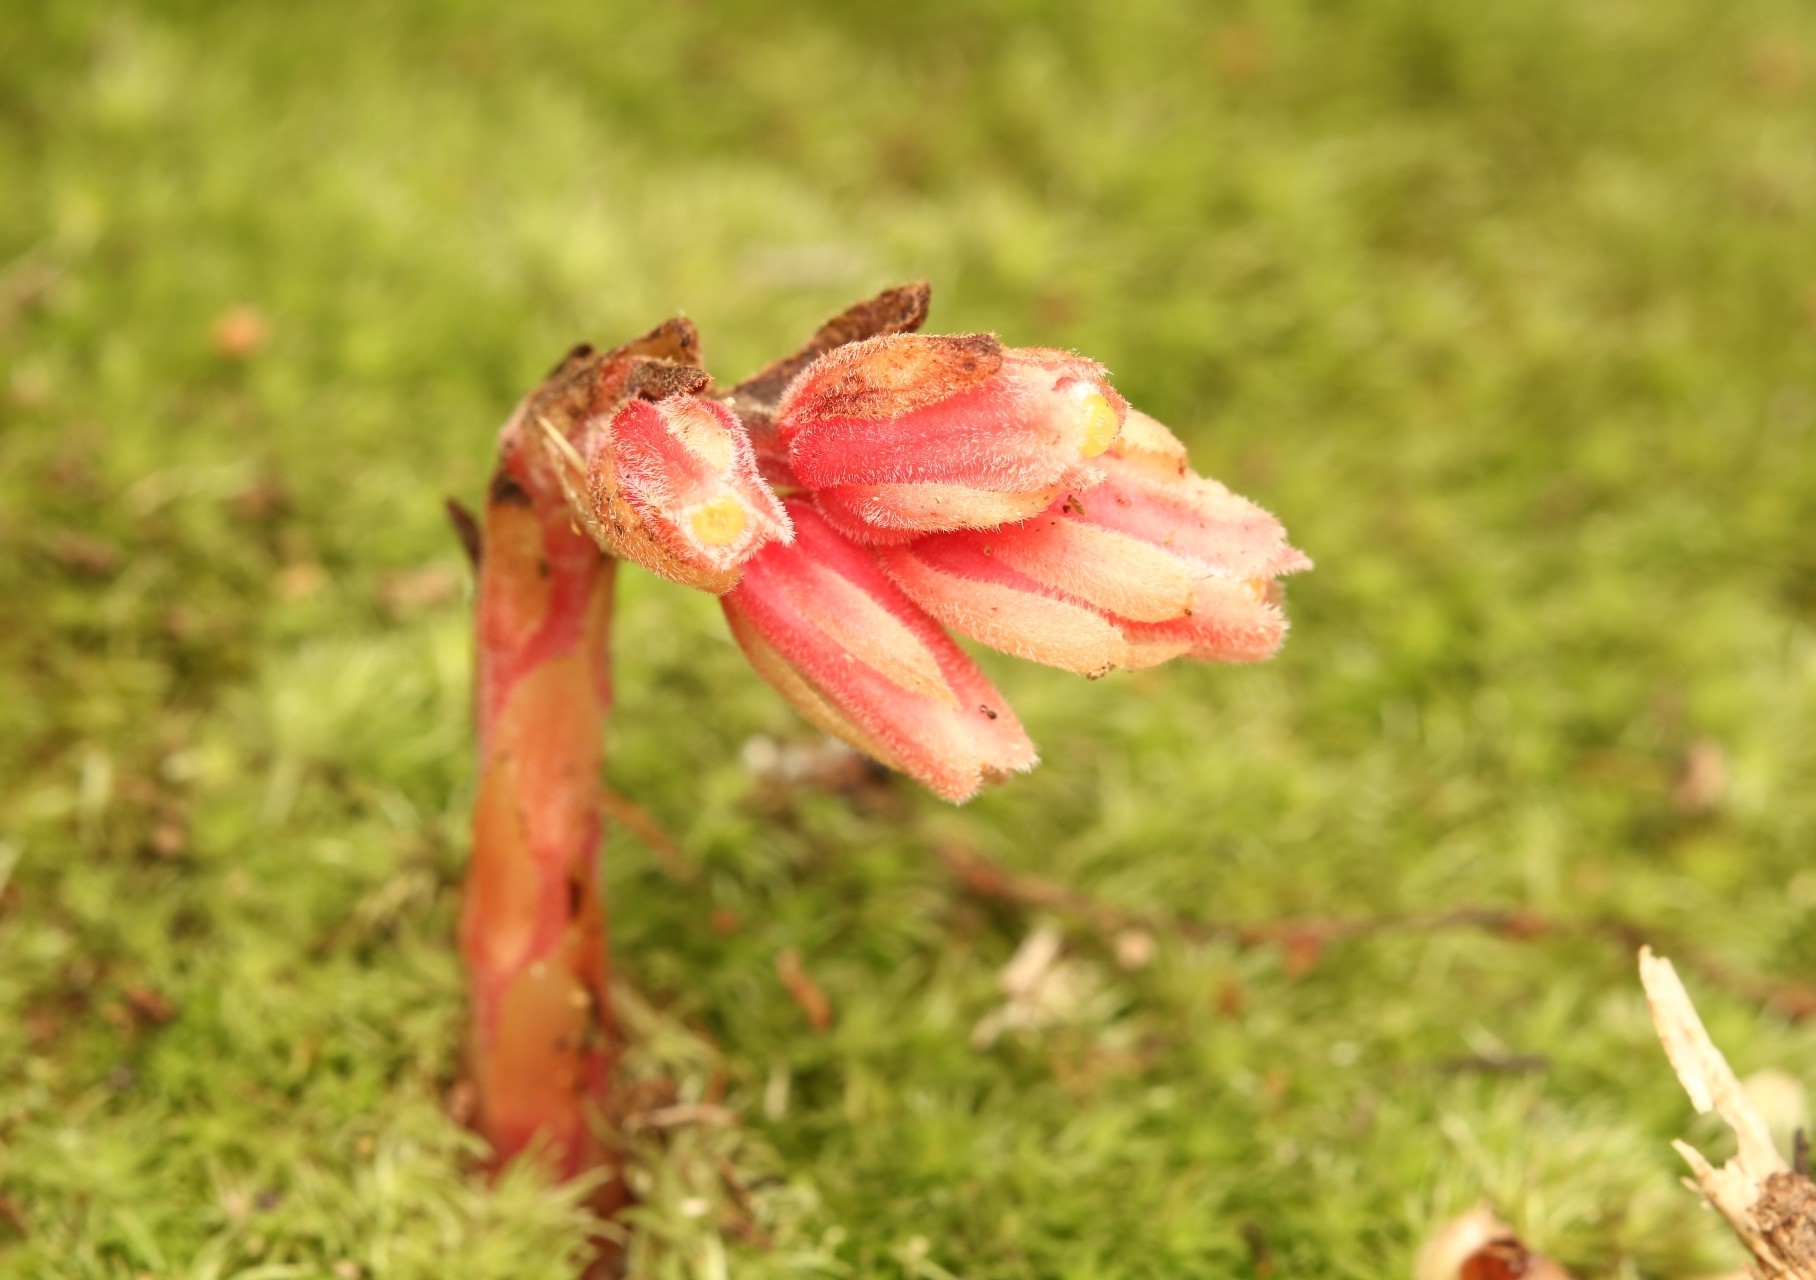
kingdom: Plantae
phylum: Tracheophyta
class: Magnoliopsida
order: Ericales
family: Ericaceae
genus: Hypopitys
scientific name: Hypopitys monotropa
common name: Yellow bird's-nest
